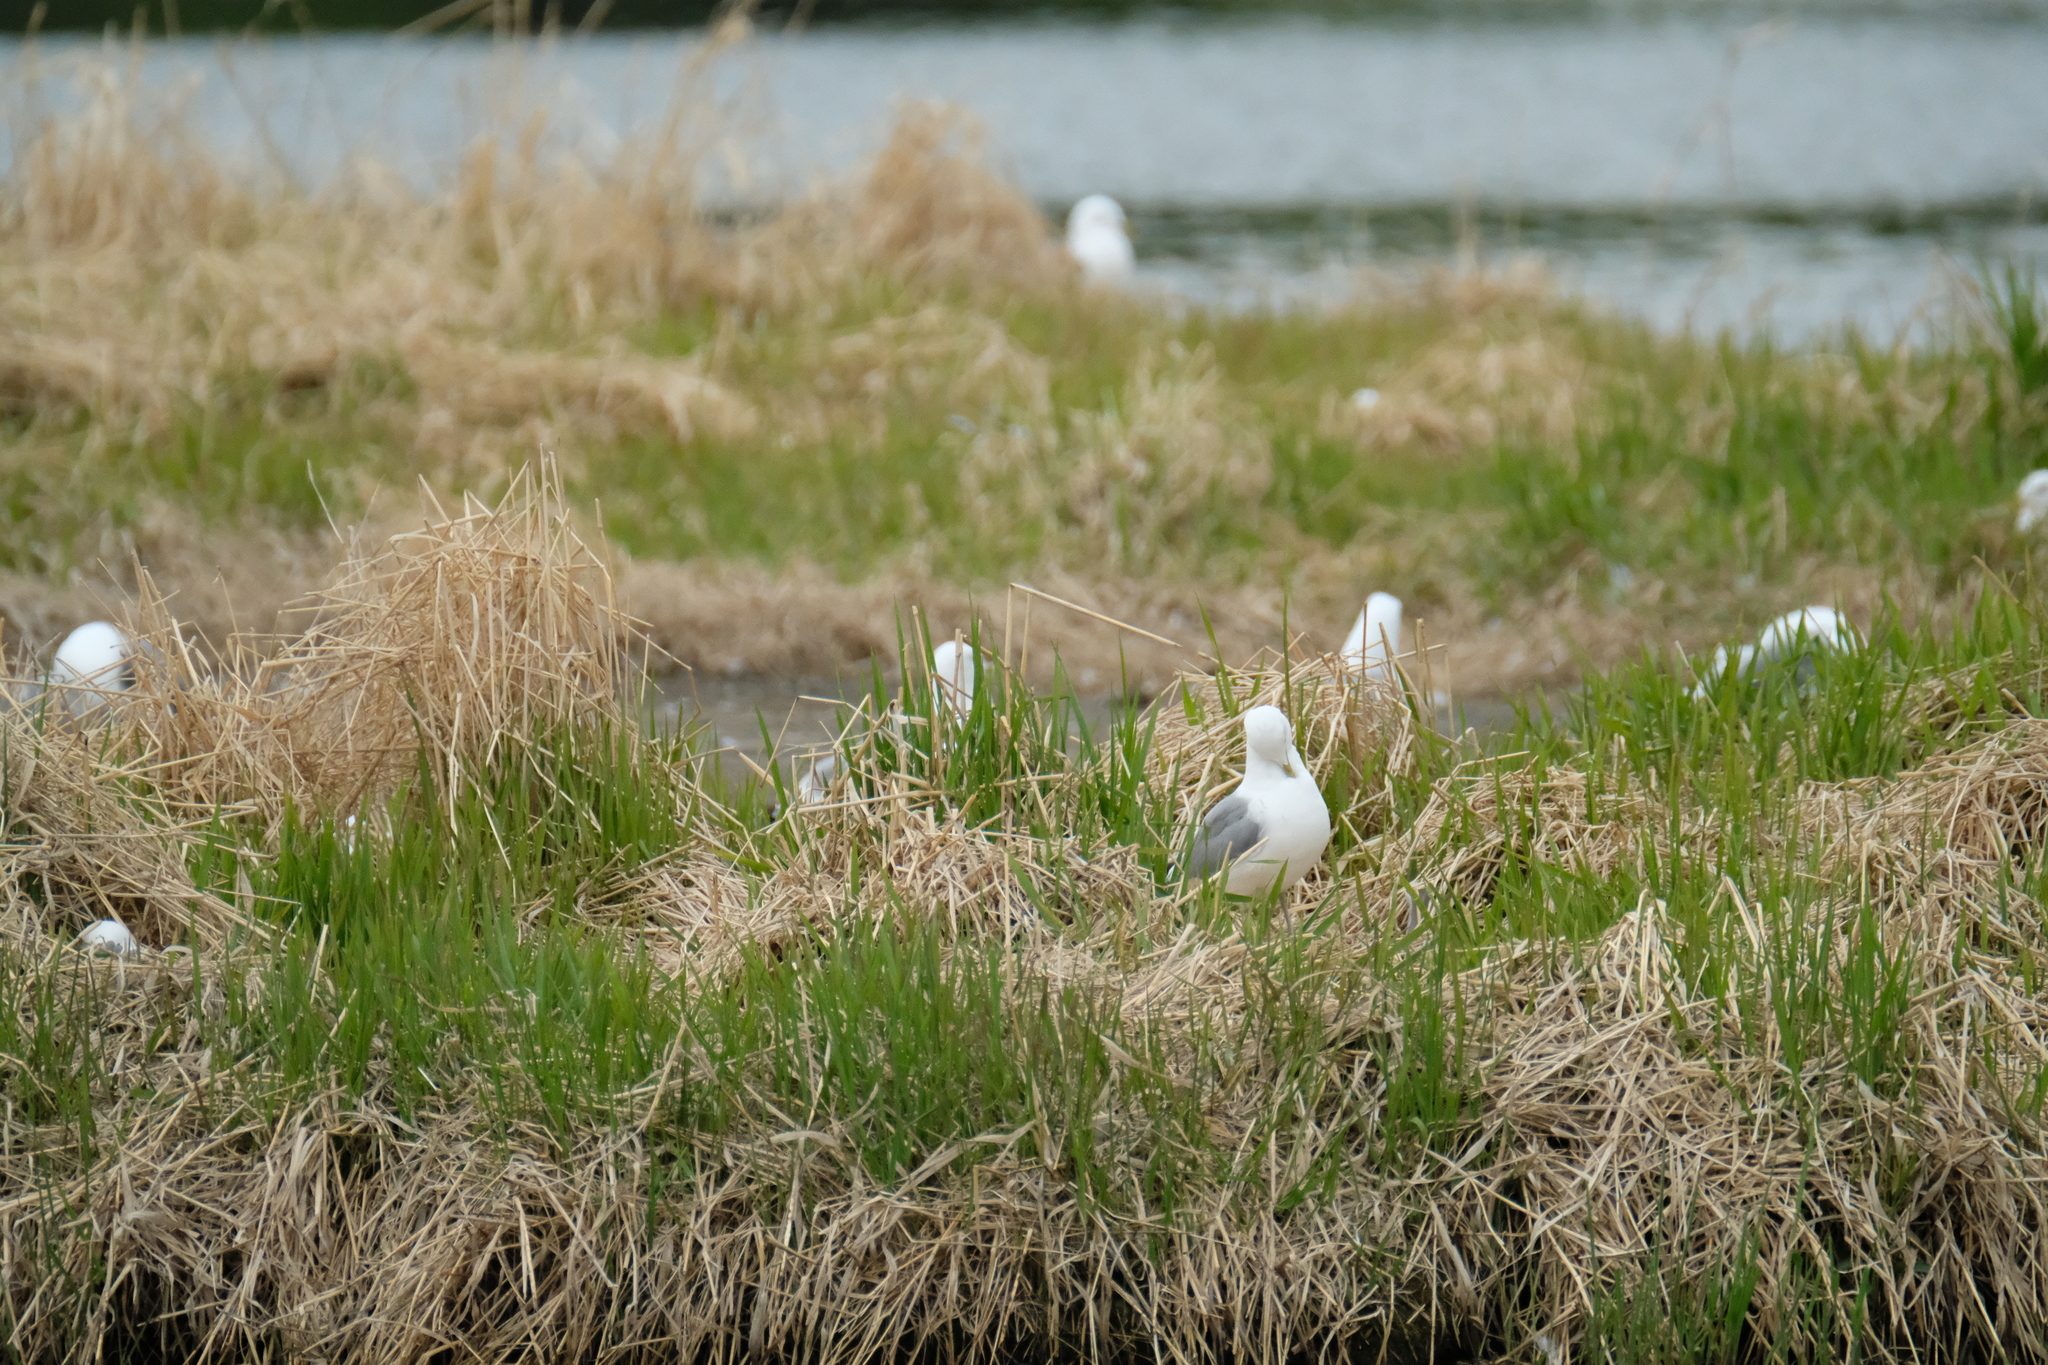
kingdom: Animalia
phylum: Chordata
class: Aves
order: Charadriiformes
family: Laridae
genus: Larus
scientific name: Larus brachyrhynchus
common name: Short-billed gull
